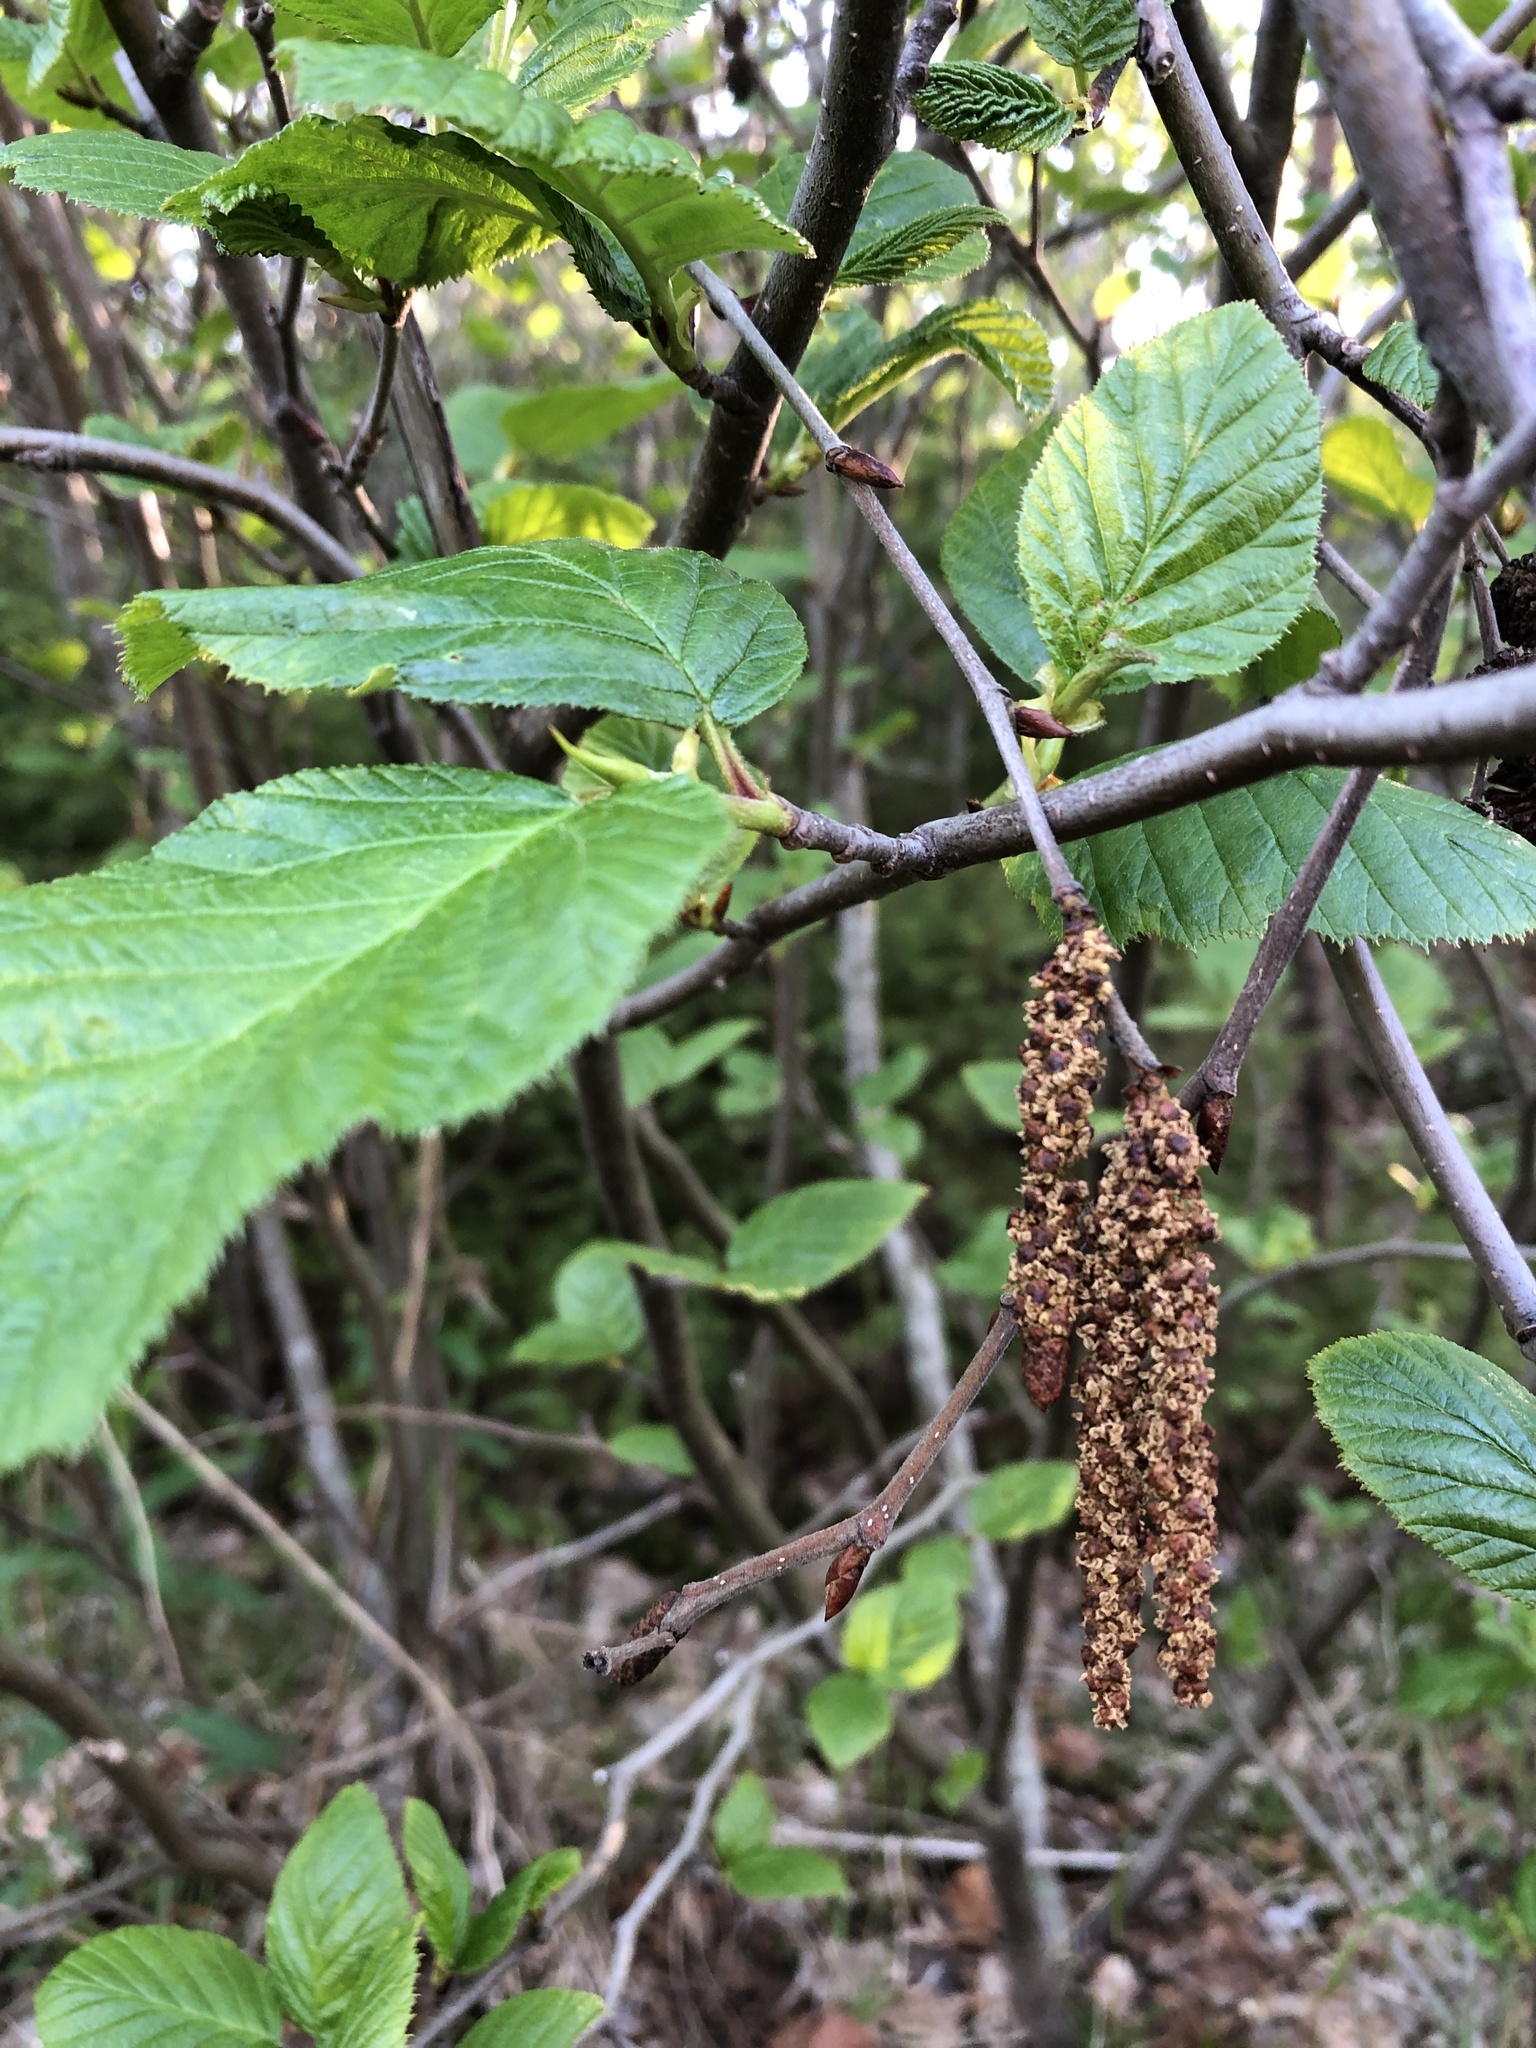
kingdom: Plantae
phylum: Tracheophyta
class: Magnoliopsida
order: Fagales
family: Betulaceae
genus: Alnus
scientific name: Alnus alnobetula
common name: Green alder
